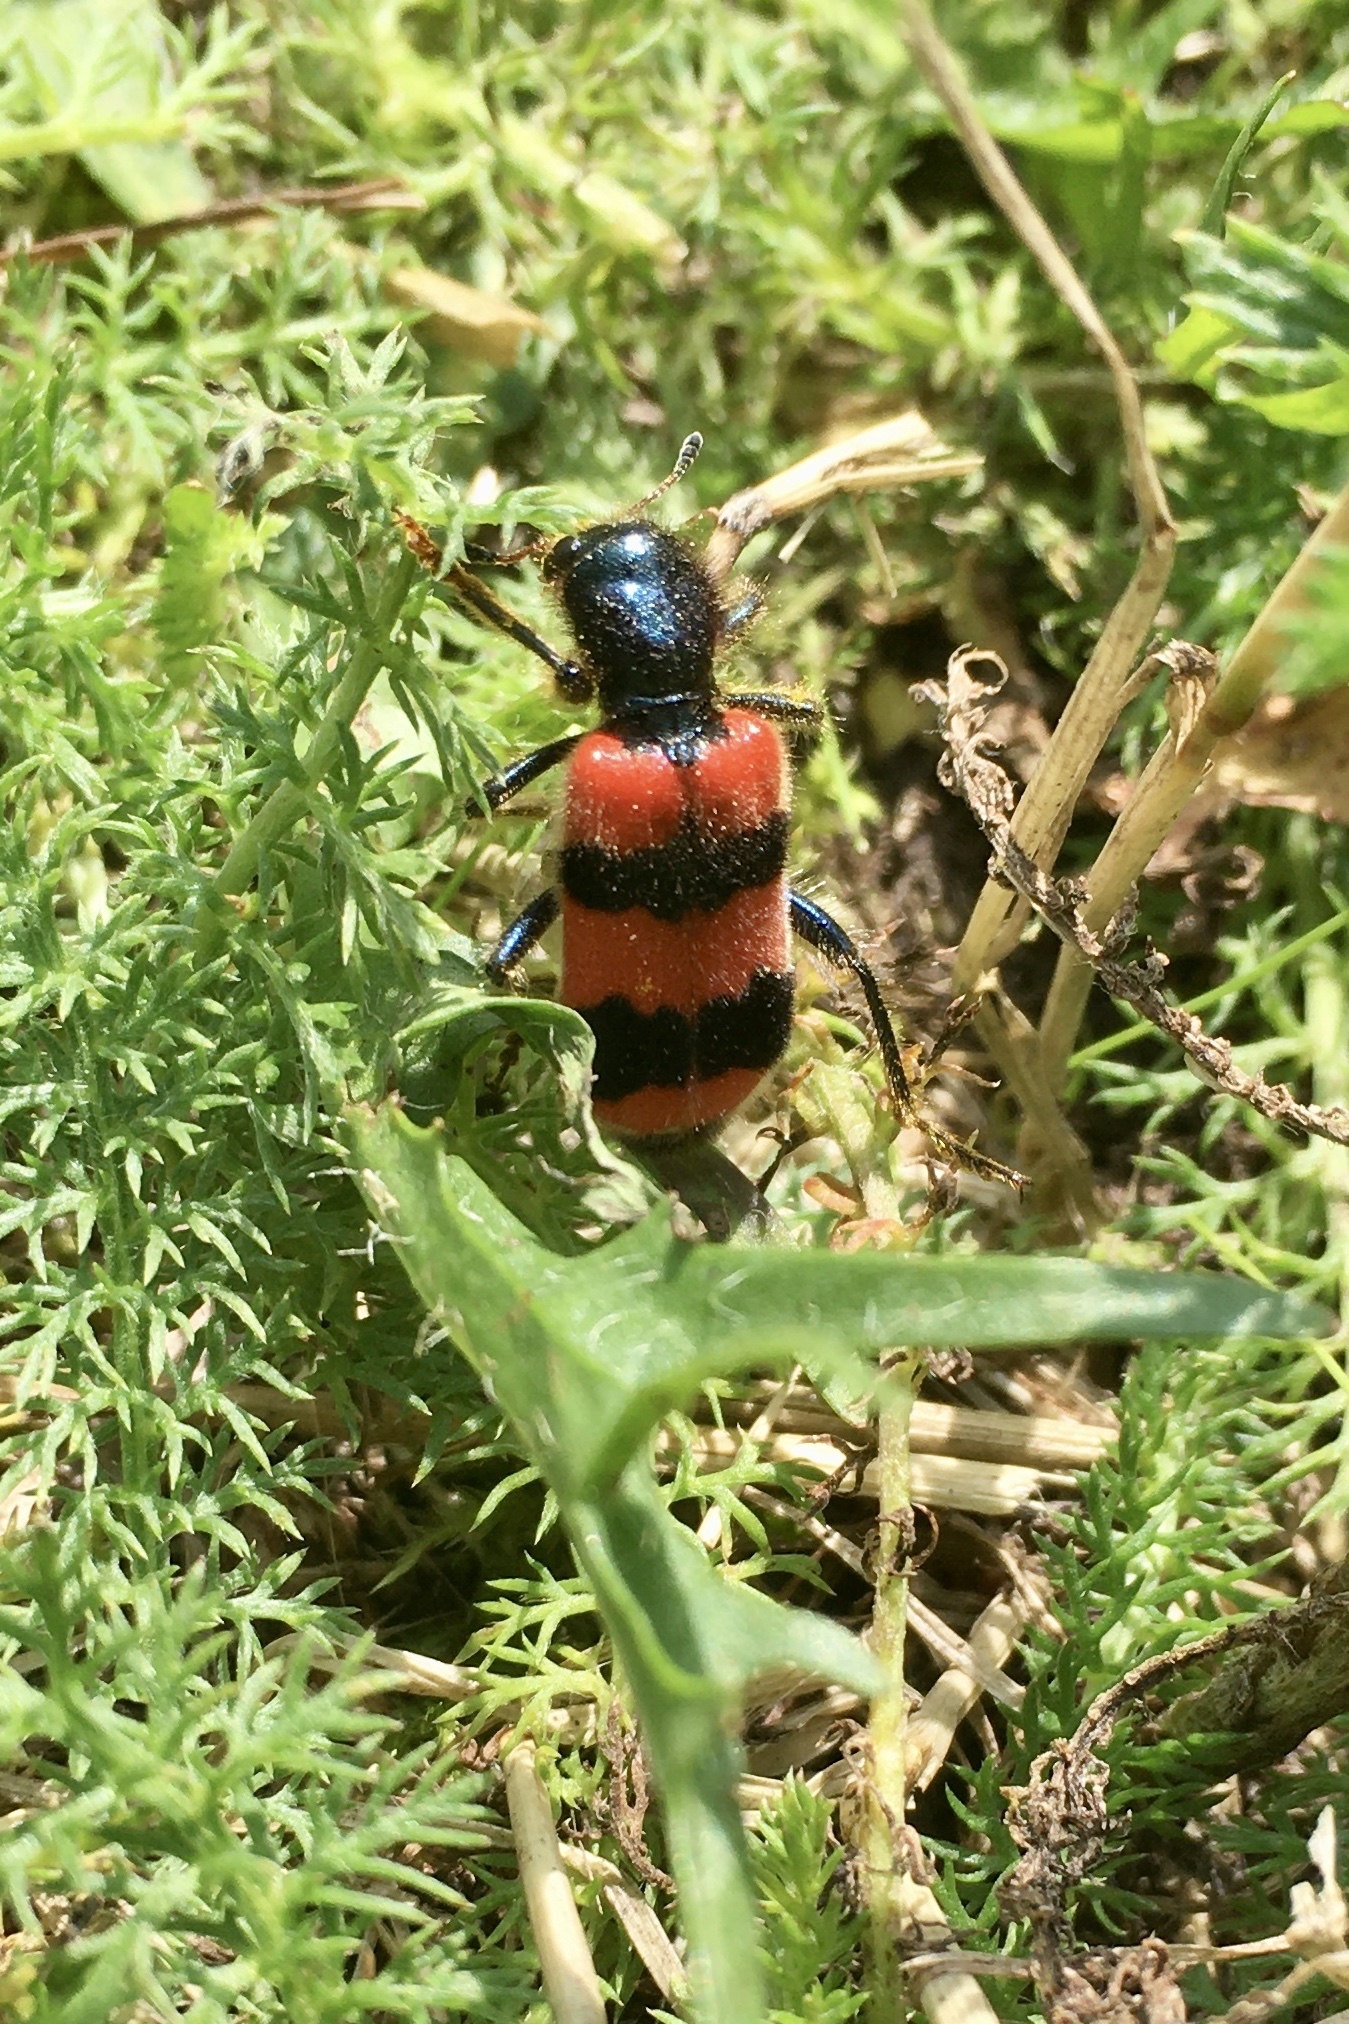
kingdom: Animalia
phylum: Arthropoda
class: Insecta
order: Coleoptera
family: Cleridae
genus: Trichodes
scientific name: Trichodes apiarius
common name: Bee-eating beetle
